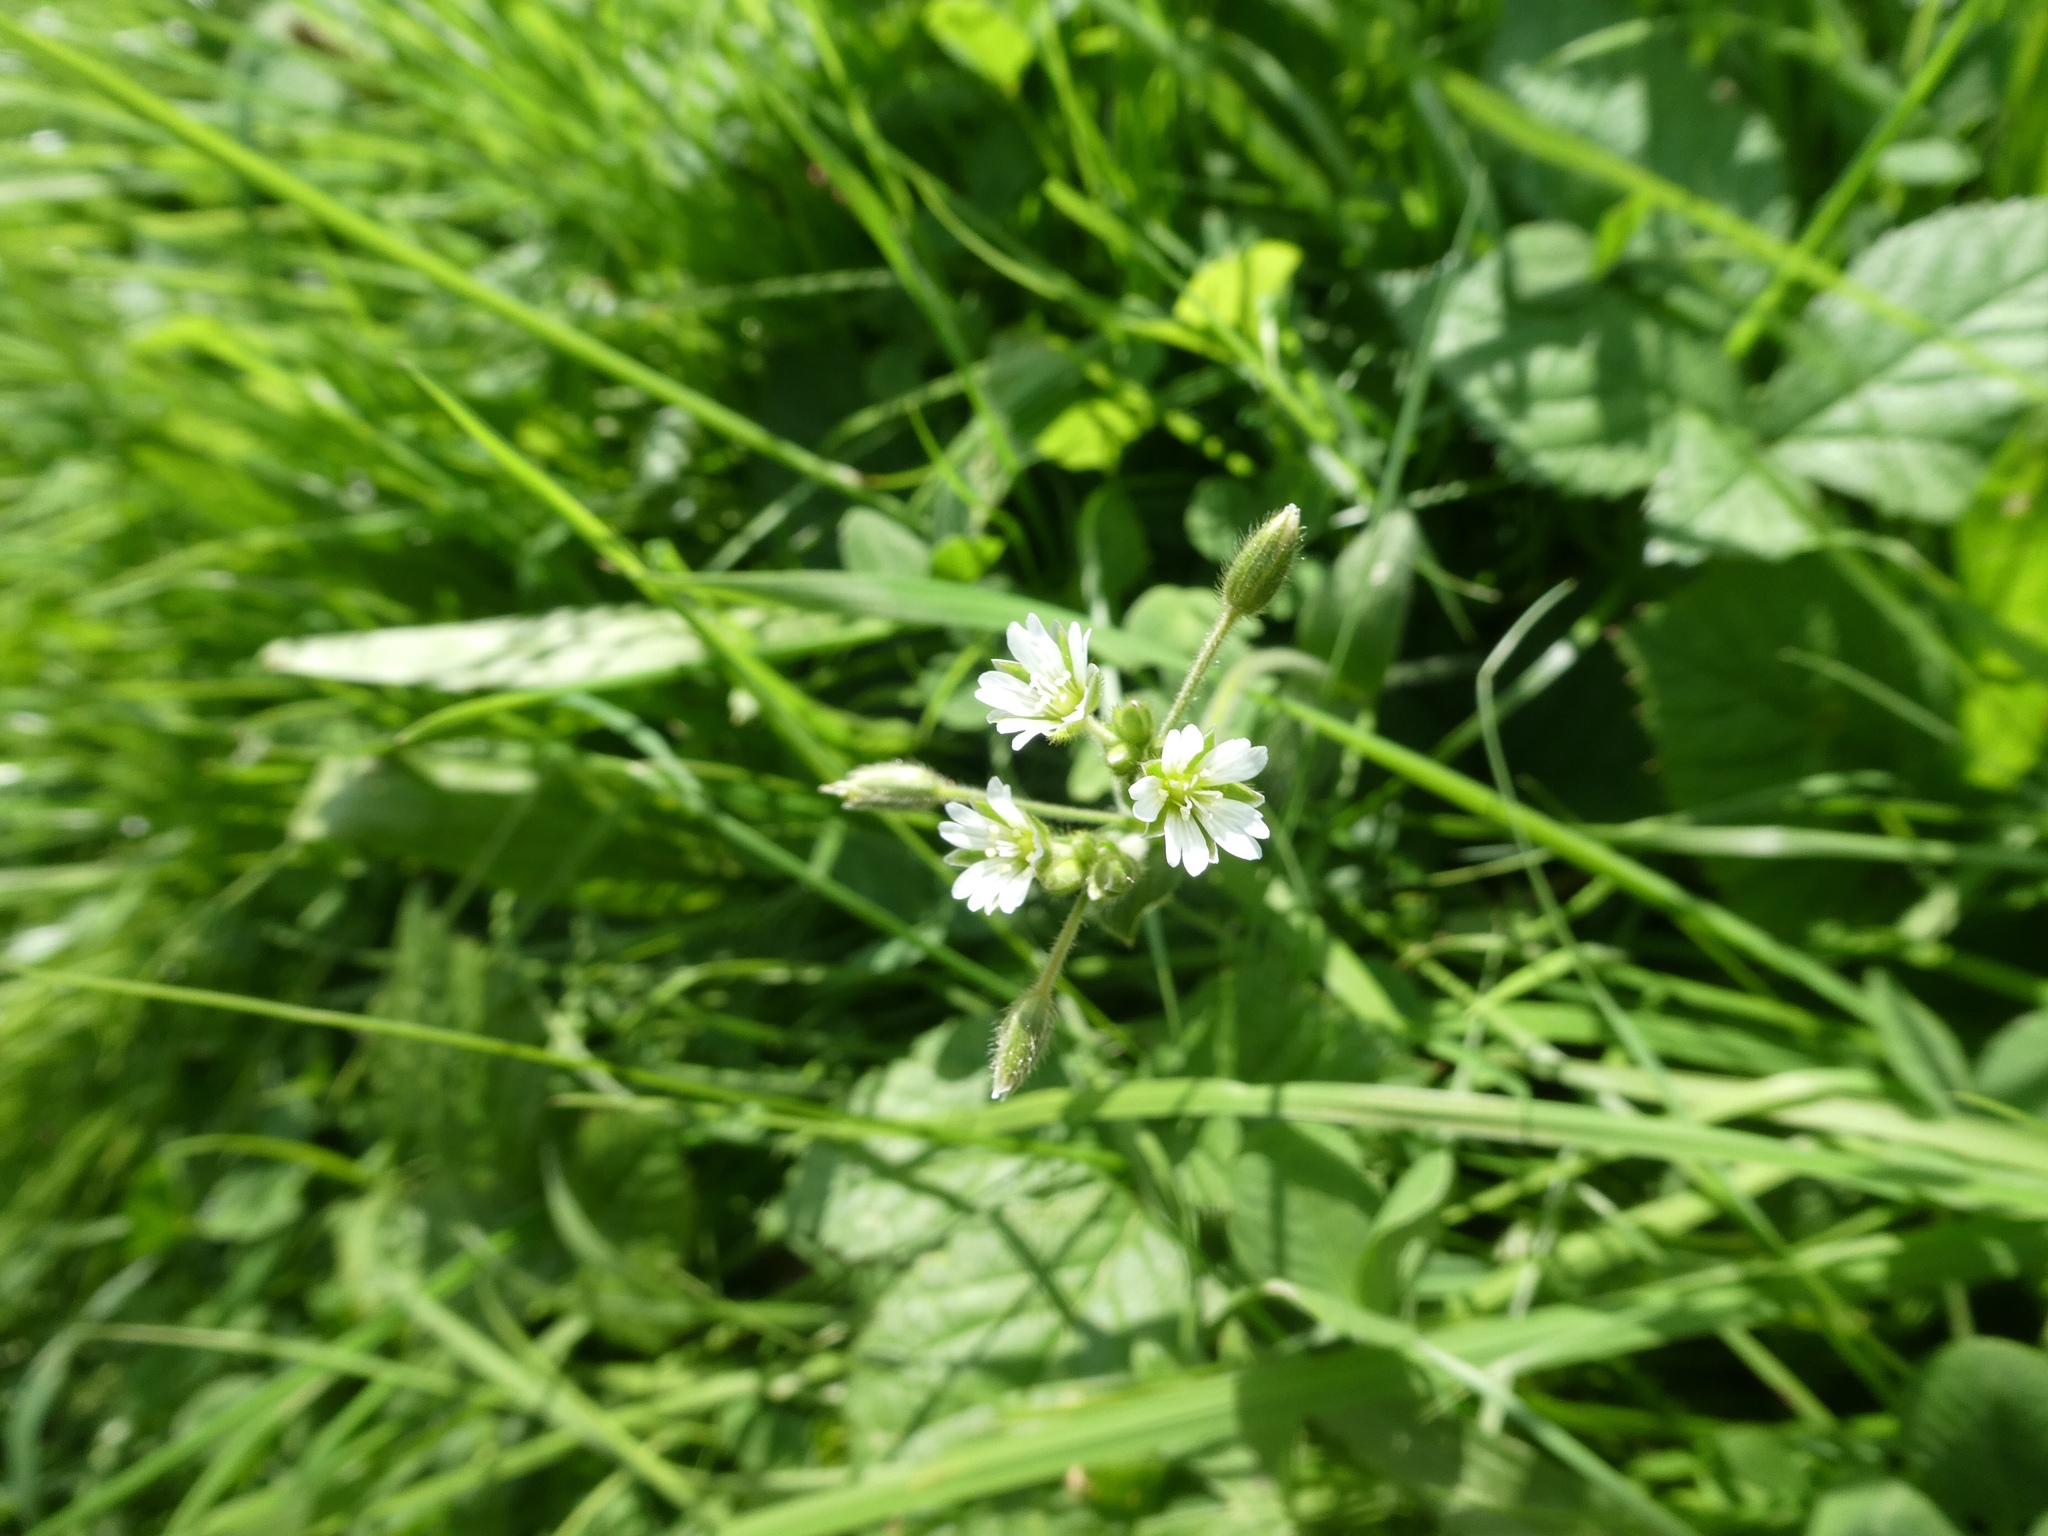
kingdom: Plantae
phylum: Tracheophyta
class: Magnoliopsida
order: Caryophyllales
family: Caryophyllaceae
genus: Cerastium
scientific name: Cerastium glomeratum
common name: Sticky chickweed
